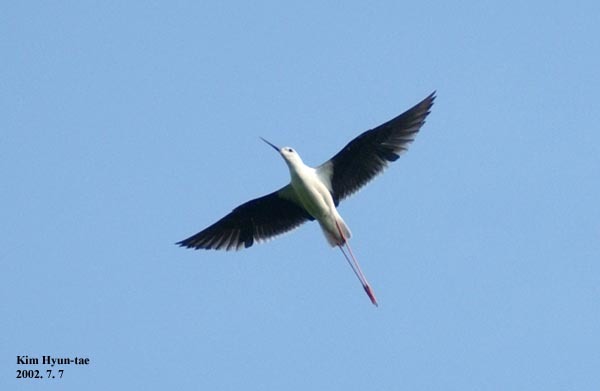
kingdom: Animalia
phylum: Chordata
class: Aves
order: Charadriiformes
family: Recurvirostridae
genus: Himantopus
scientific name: Himantopus himantopus
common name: Black-winged stilt
